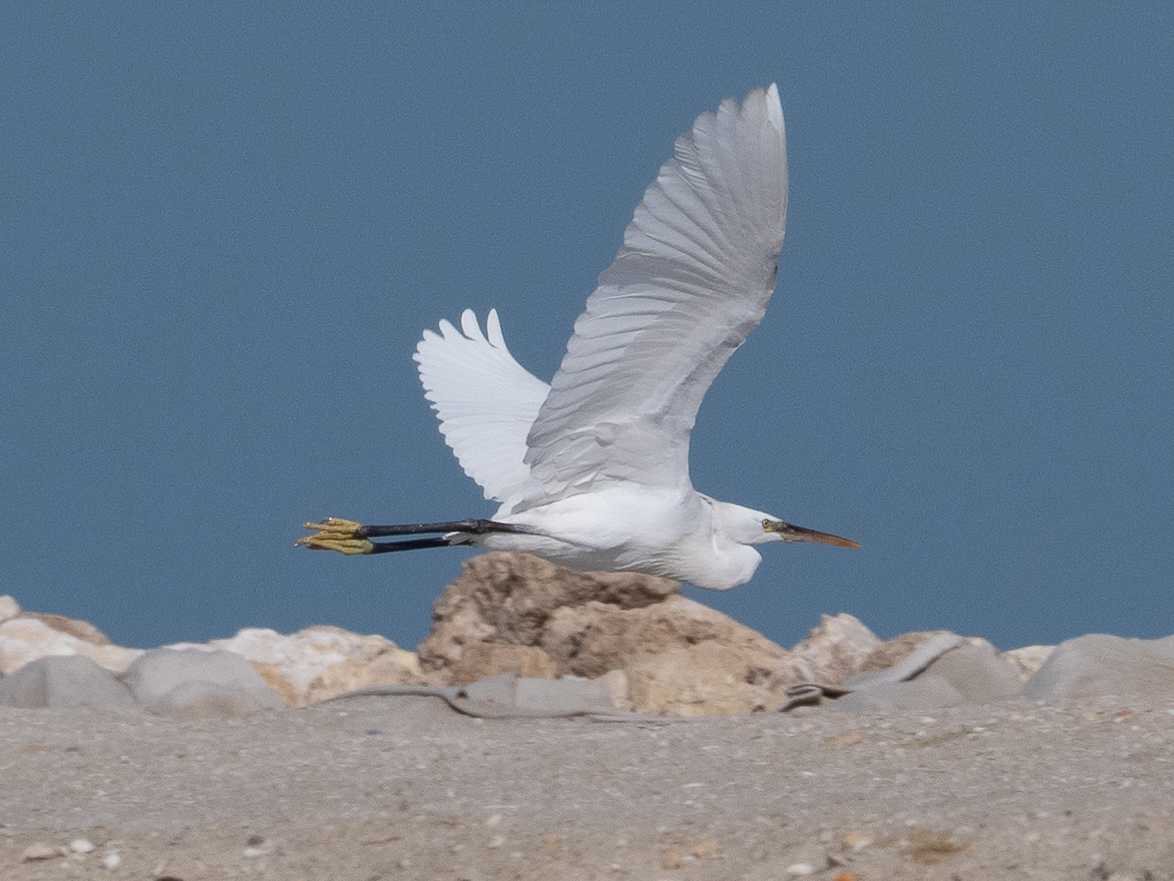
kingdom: Animalia
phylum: Chordata
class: Aves
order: Pelecaniformes
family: Ardeidae
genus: Egretta
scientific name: Egretta gularis
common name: Western reef-heron
